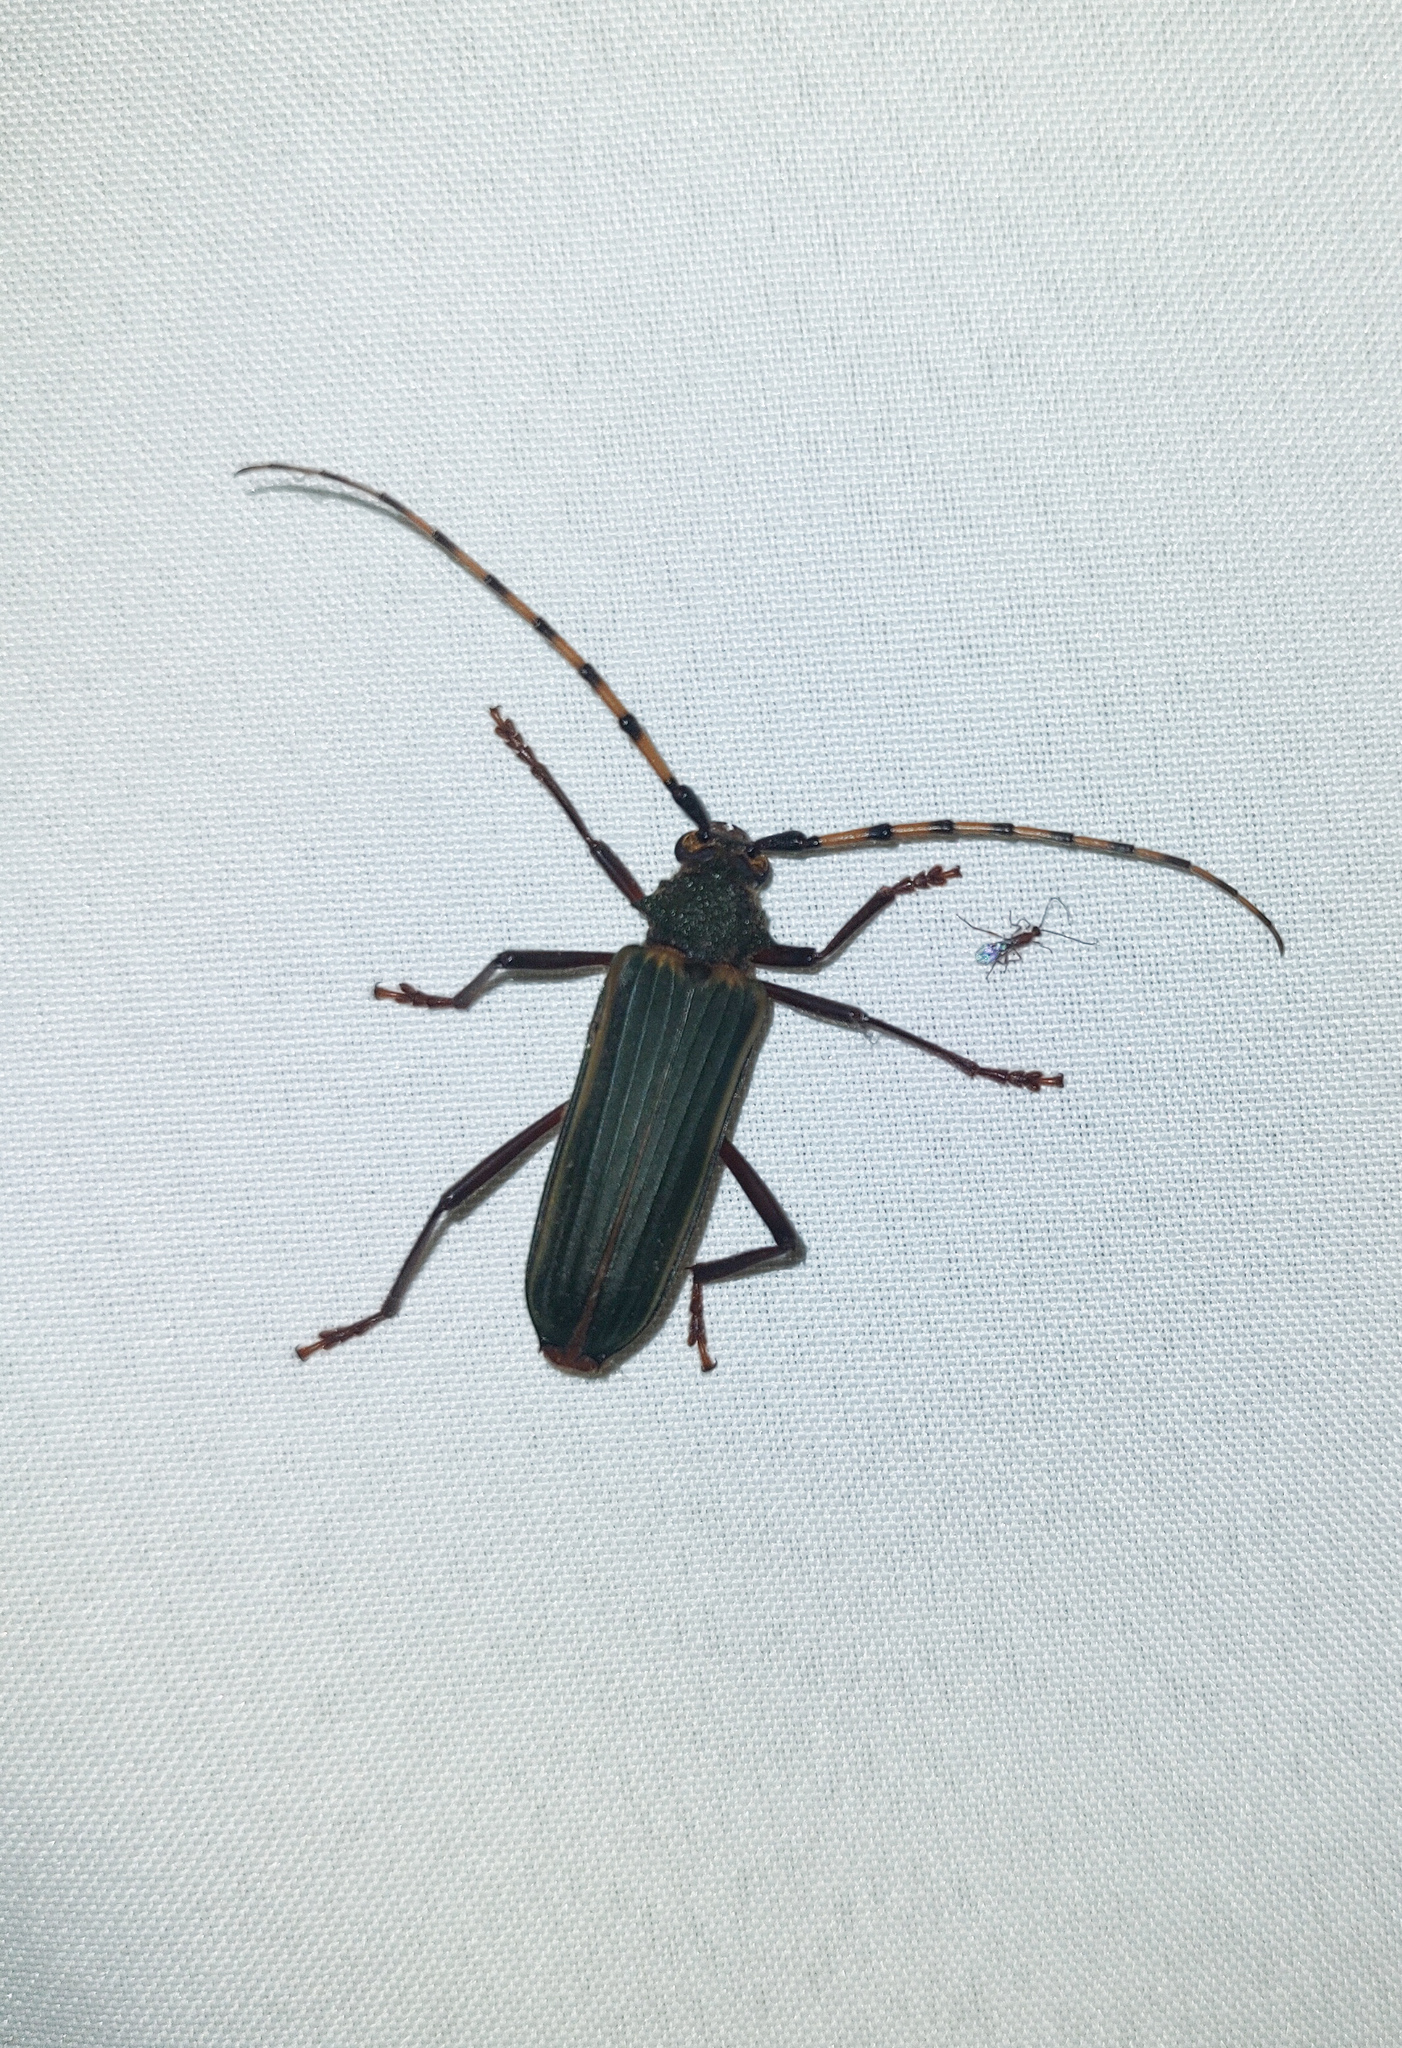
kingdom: Animalia
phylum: Arthropoda
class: Insecta
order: Coleoptera
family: Cerambycidae
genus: Chlorida
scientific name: Chlorida costata
